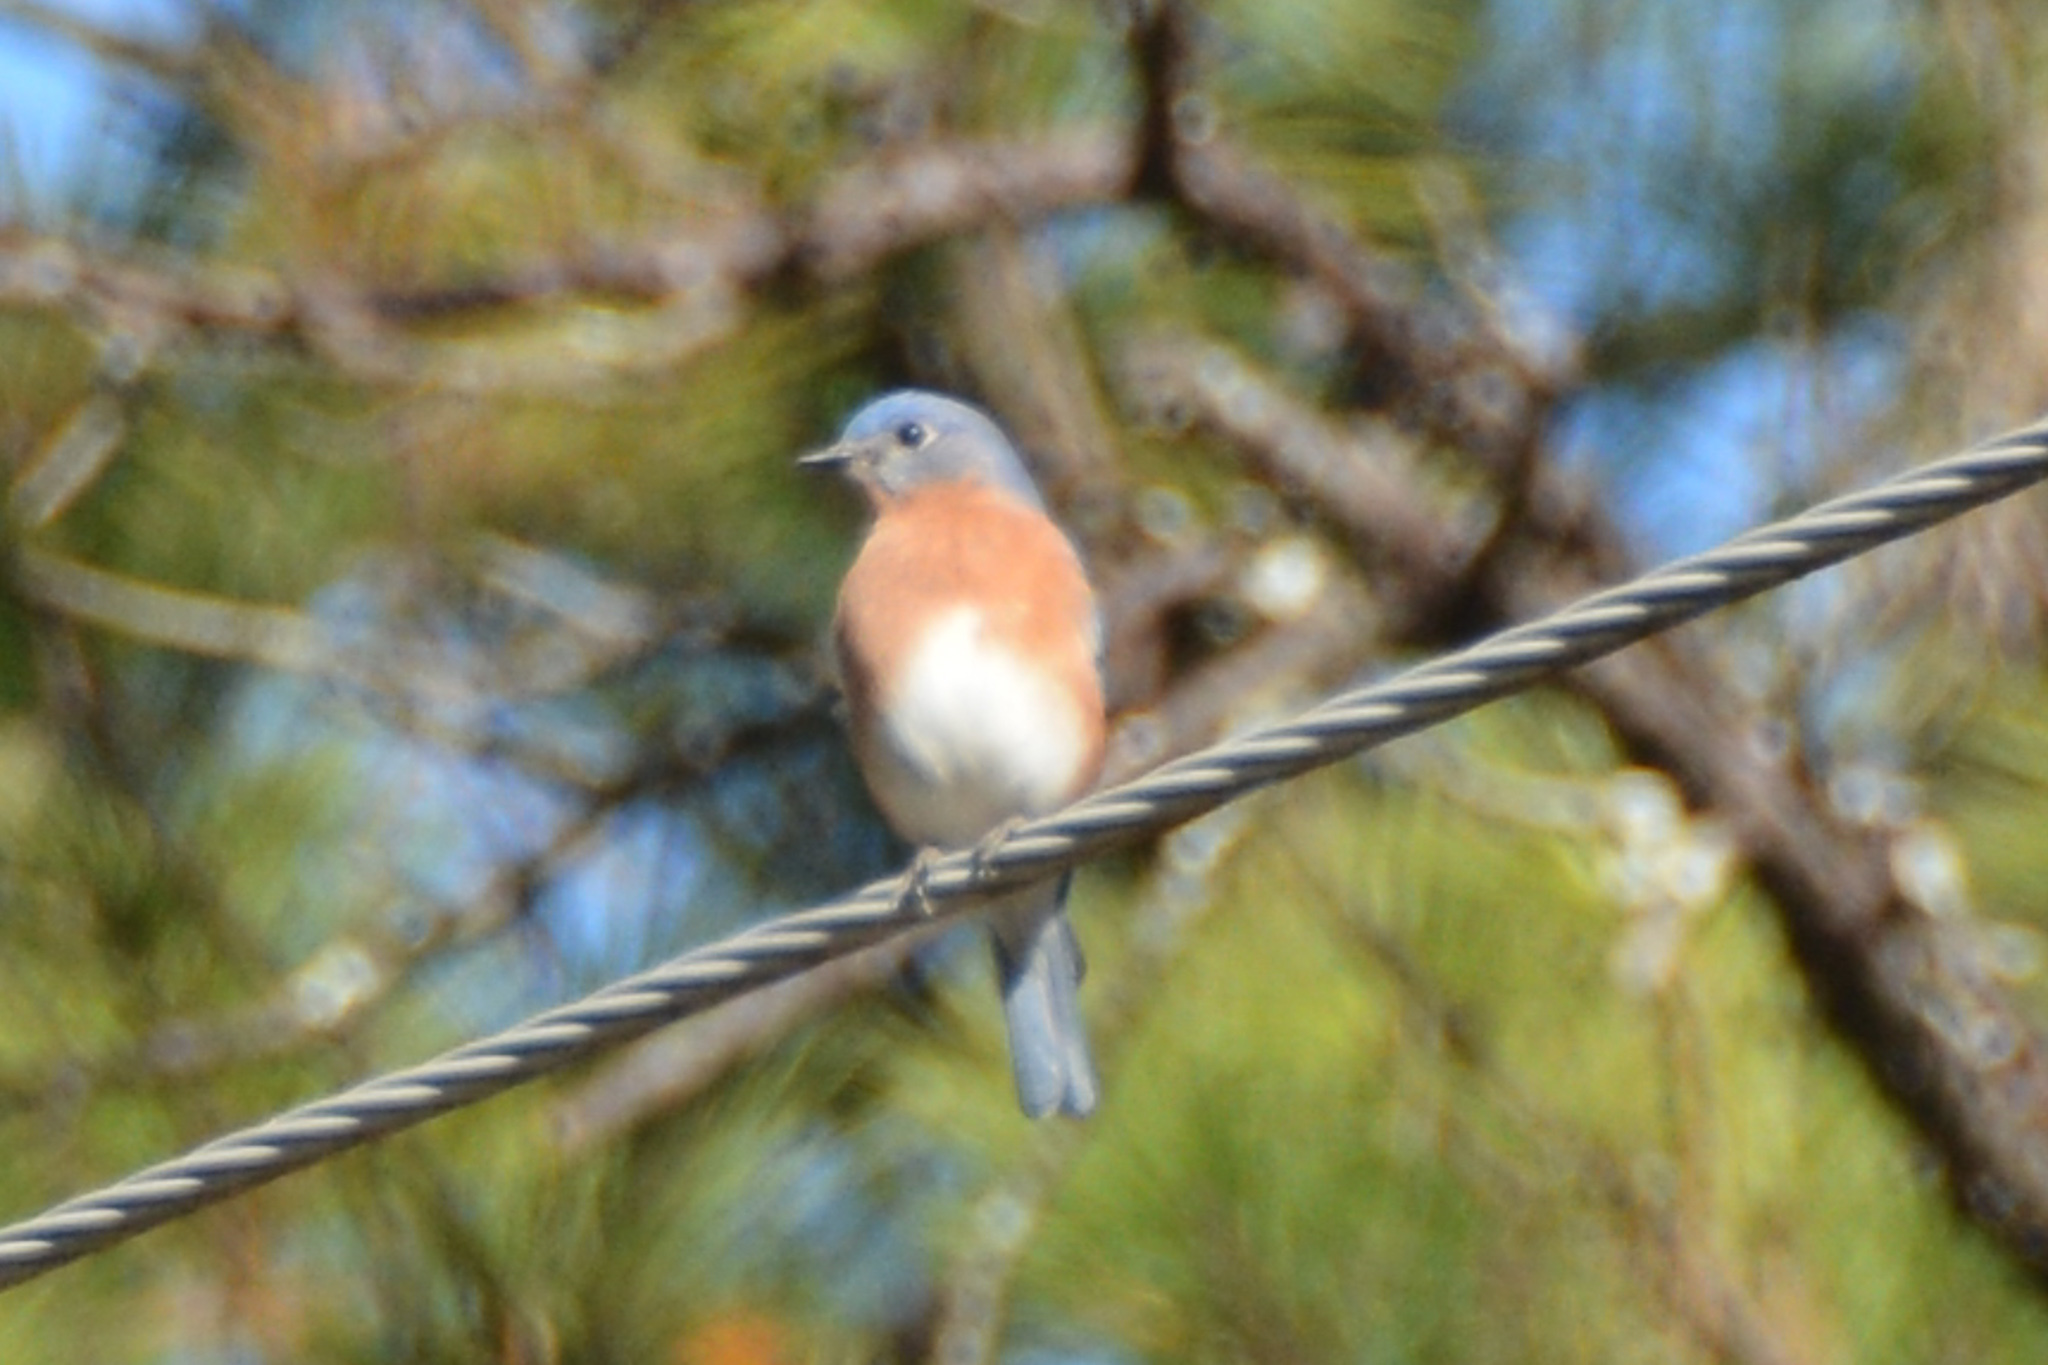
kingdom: Animalia
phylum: Chordata
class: Aves
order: Passeriformes
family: Turdidae
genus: Sialia
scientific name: Sialia sialis
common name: Eastern bluebird
